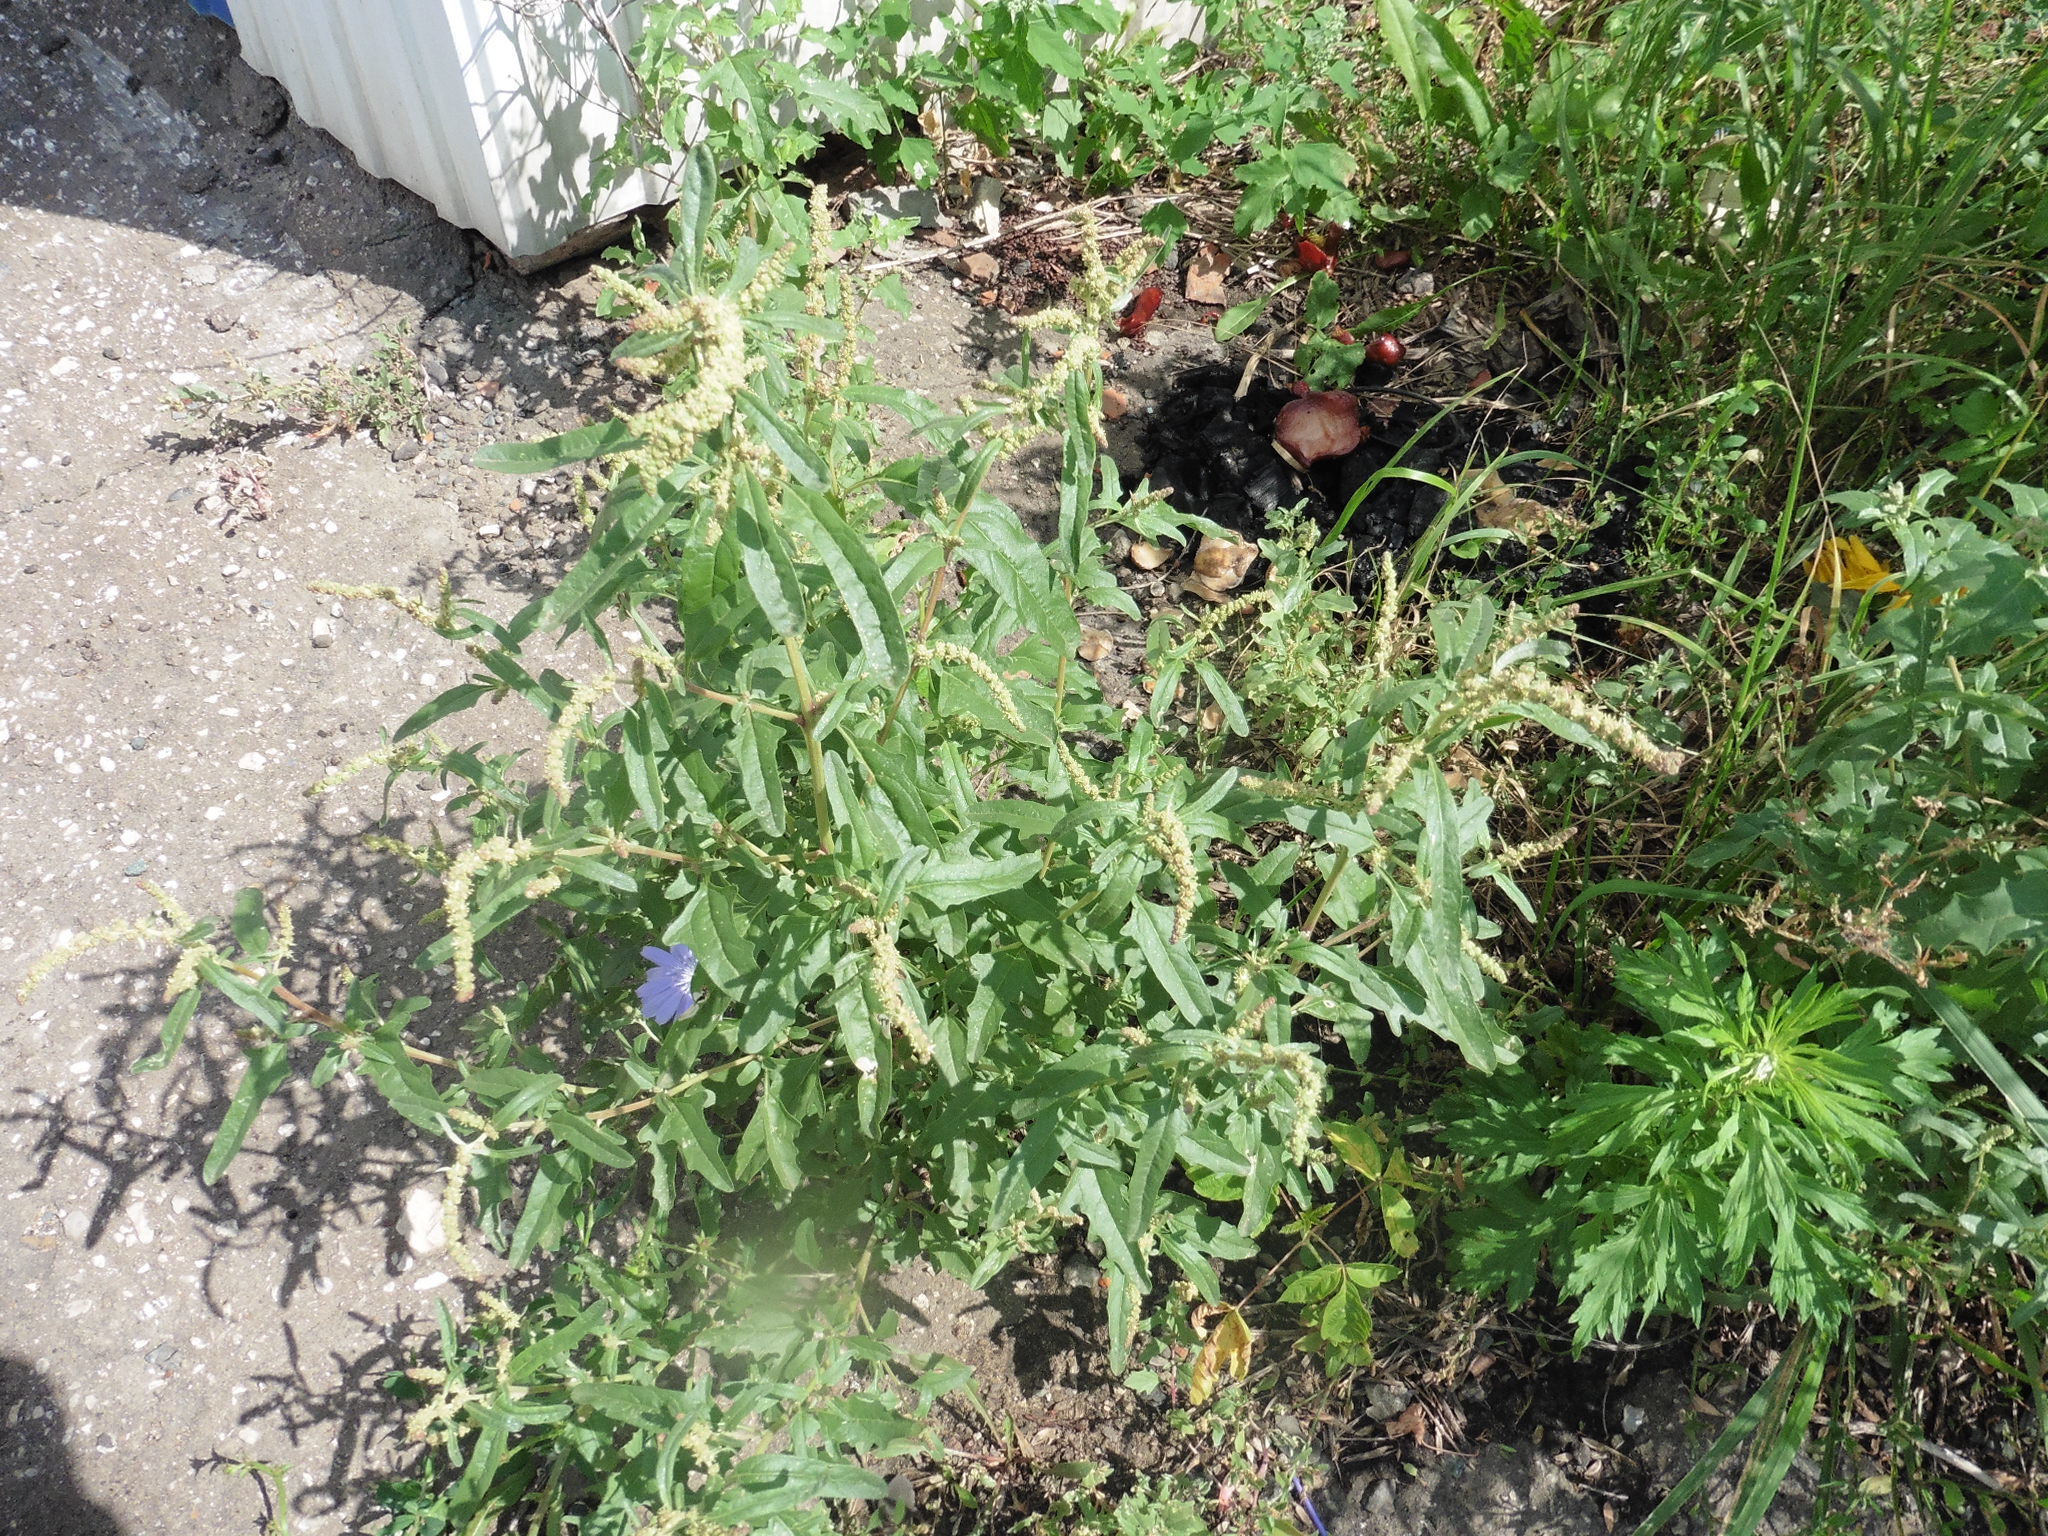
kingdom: Plantae
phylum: Tracheophyta
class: Magnoliopsida
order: Caryophyllales
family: Amaranthaceae
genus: Atriplex
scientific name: Atriplex tatarica
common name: Tatarian orache
